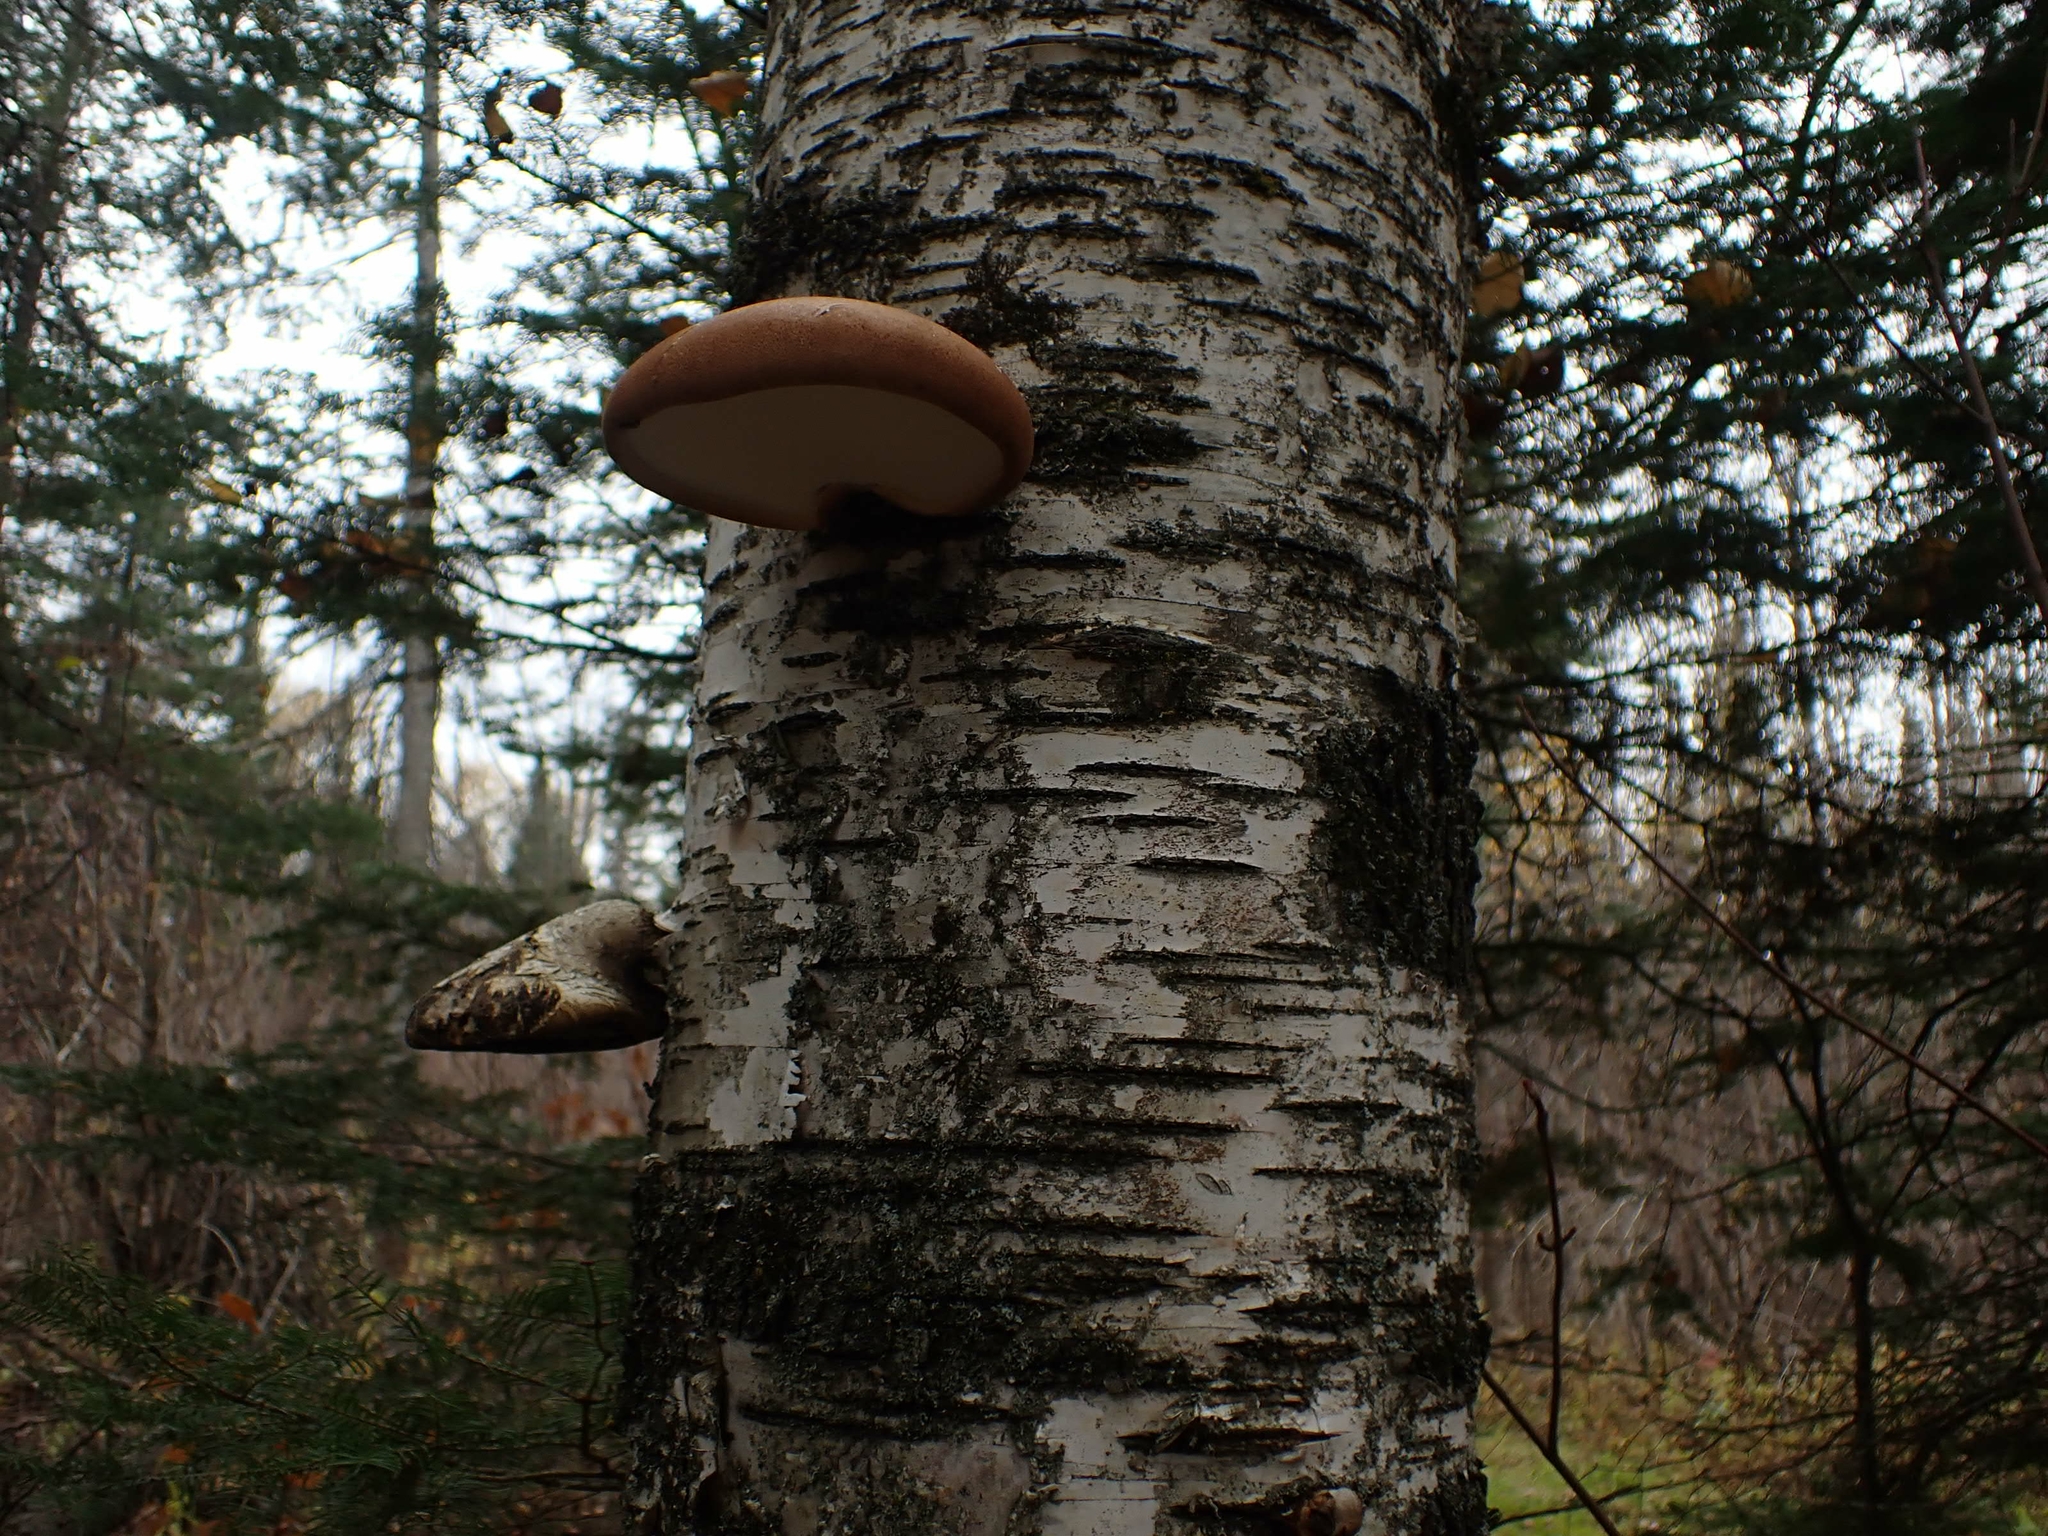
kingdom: Fungi
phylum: Basidiomycota
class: Agaricomycetes
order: Polyporales
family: Fomitopsidaceae
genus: Fomitopsis
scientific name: Fomitopsis betulina
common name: Birch polypore
